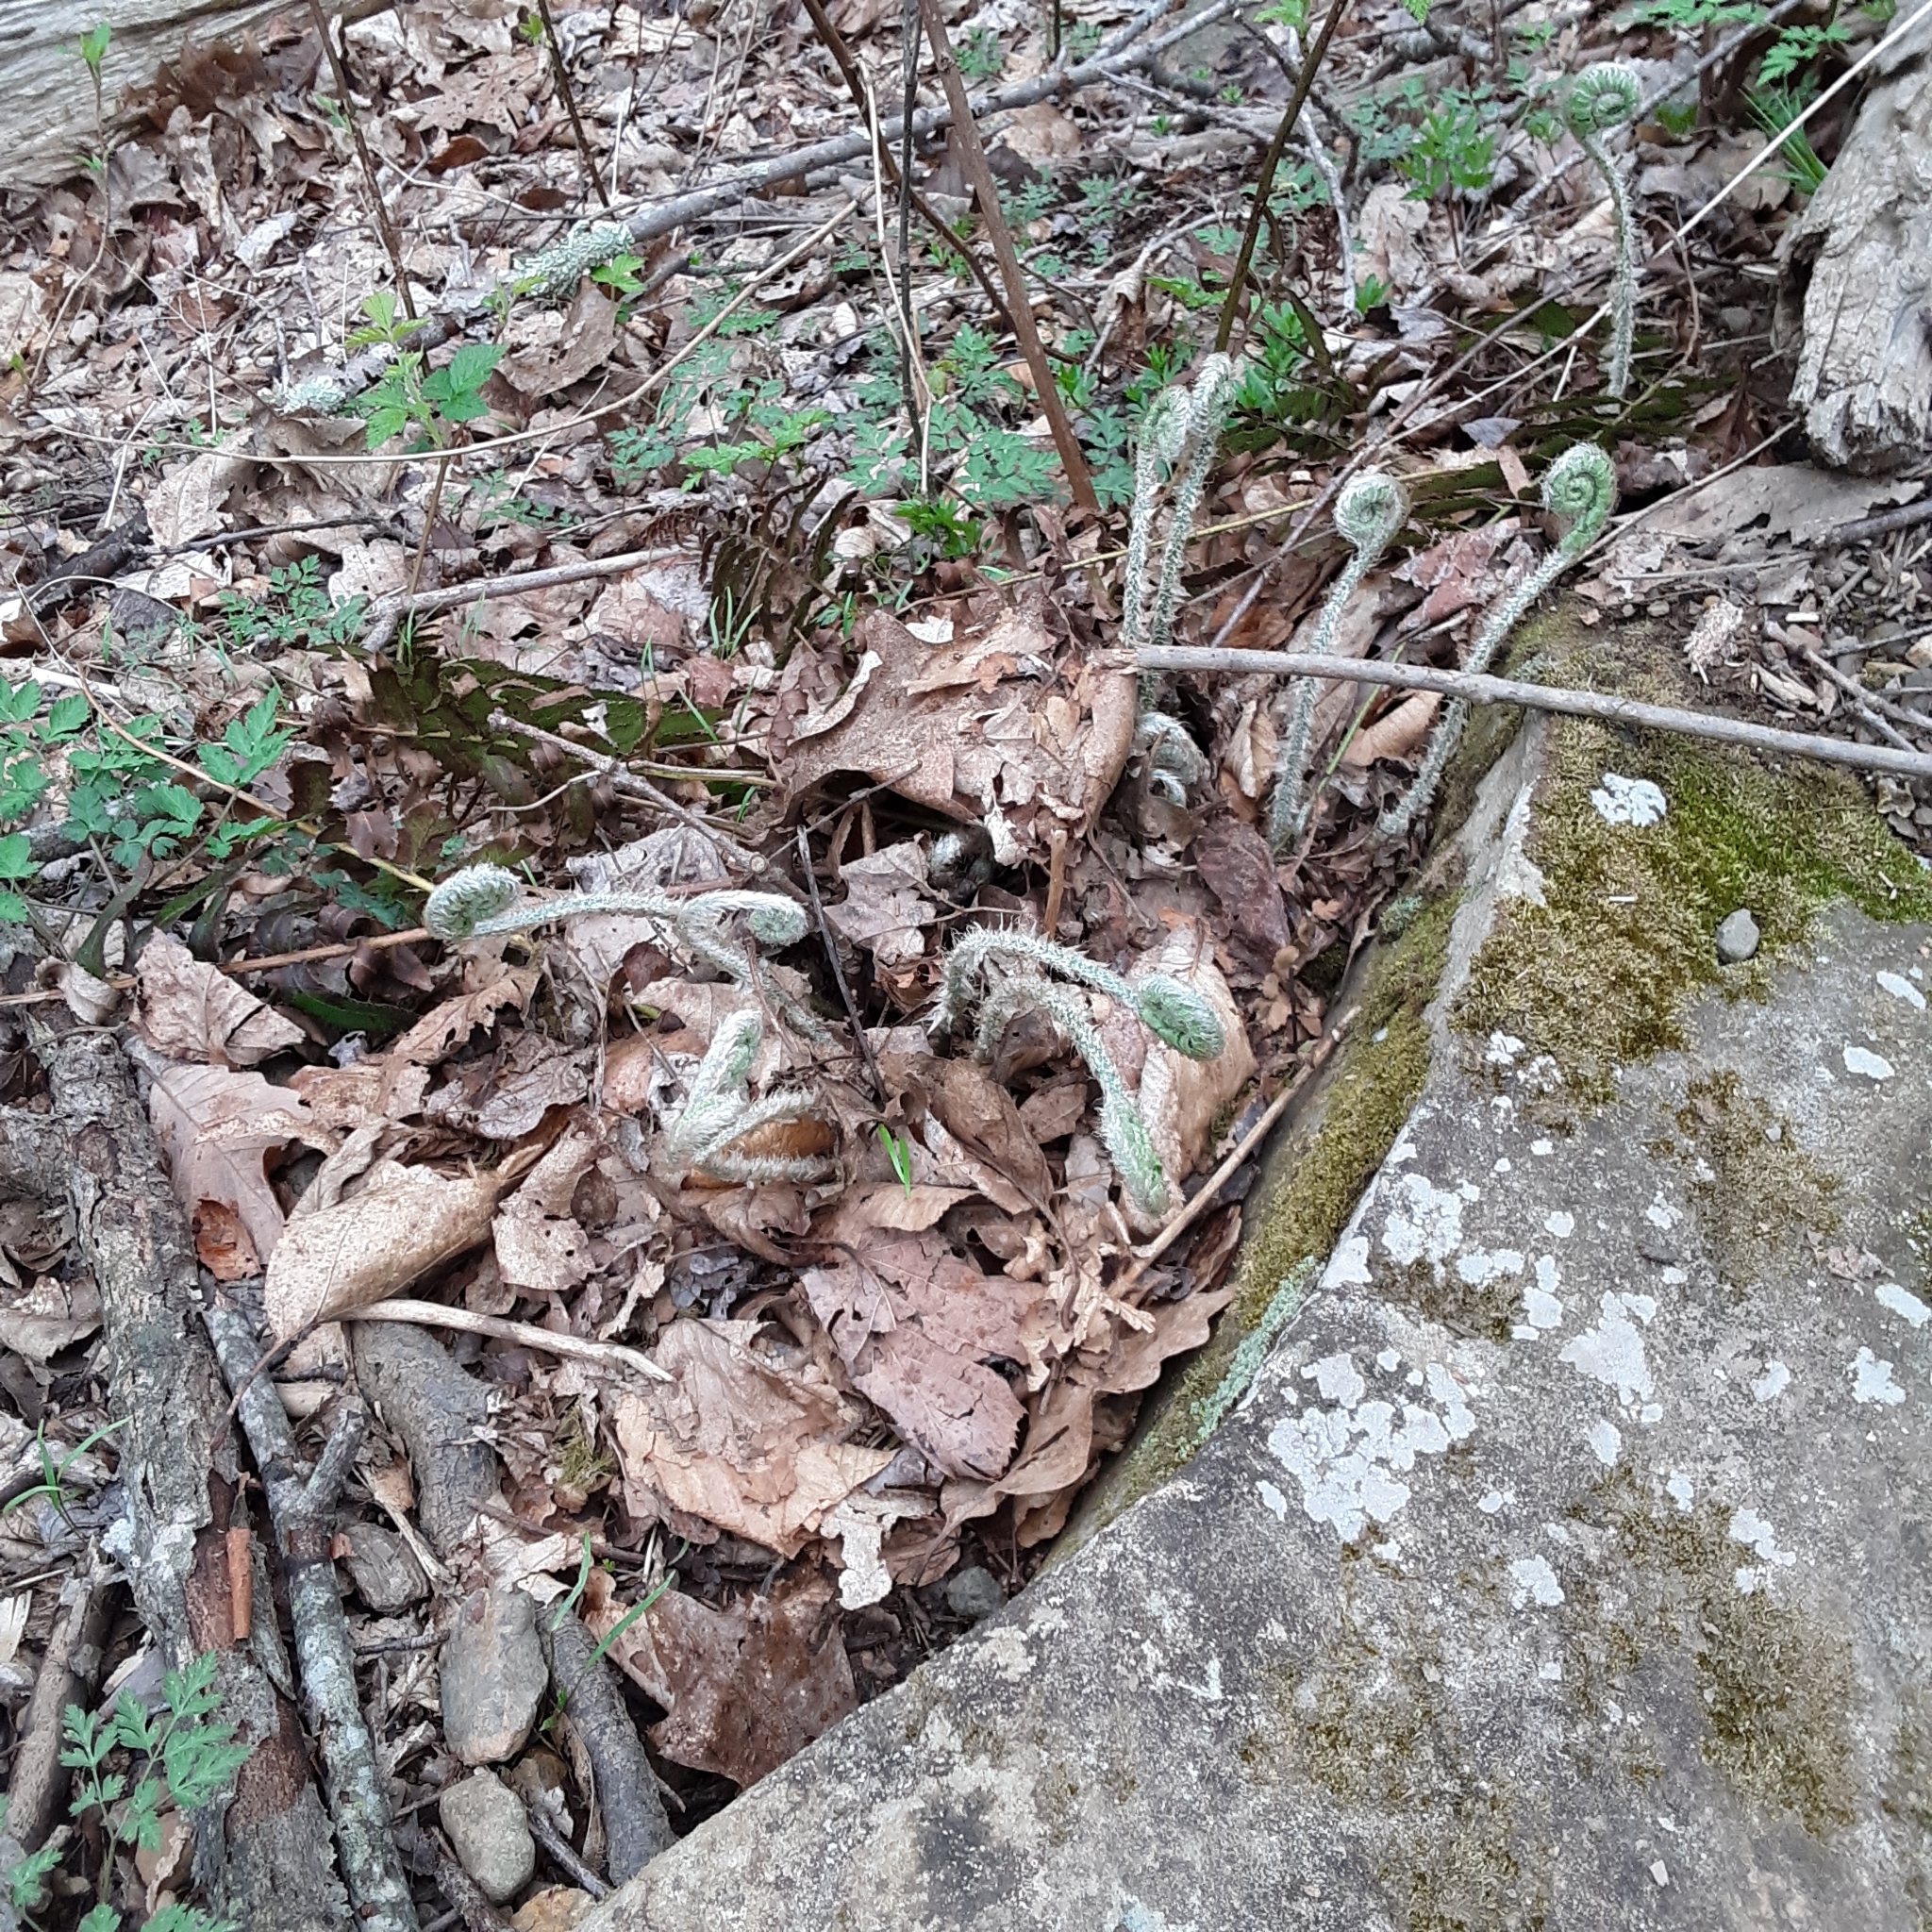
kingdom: Plantae
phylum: Tracheophyta
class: Polypodiopsida
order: Polypodiales
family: Dryopteridaceae
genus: Polystichum
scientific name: Polystichum acrostichoides
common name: Christmas fern
